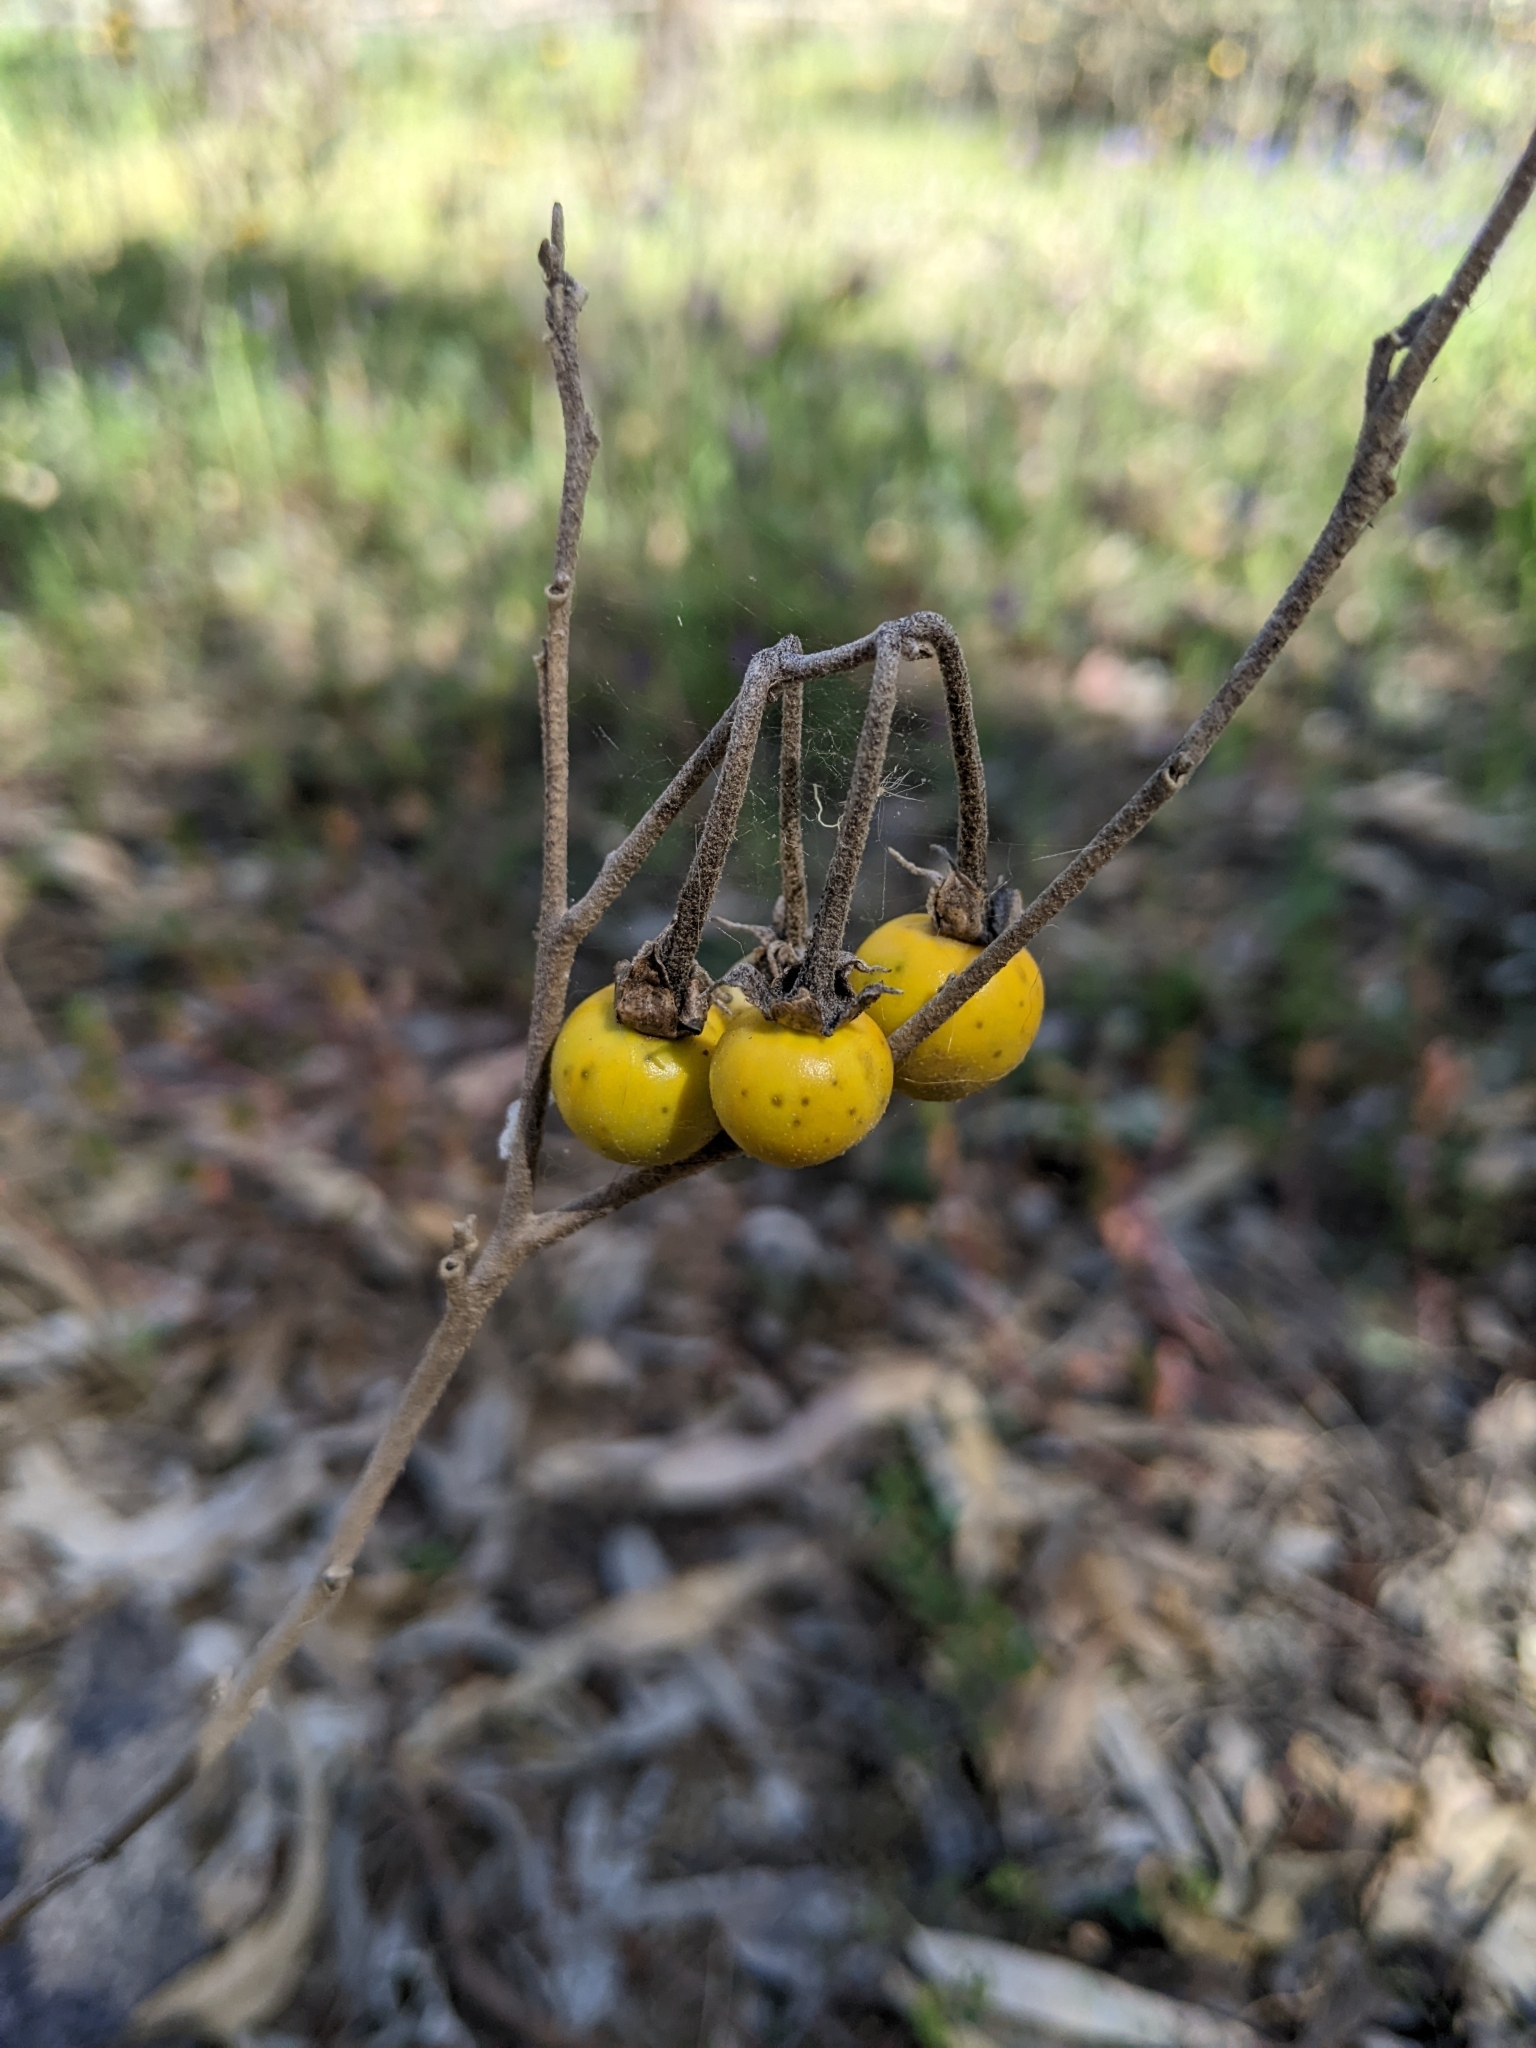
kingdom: Plantae
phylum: Tracheophyta
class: Magnoliopsida
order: Solanales
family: Solanaceae
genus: Solanum
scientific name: Solanum elaeagnifolium
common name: Silverleaf nightshade
